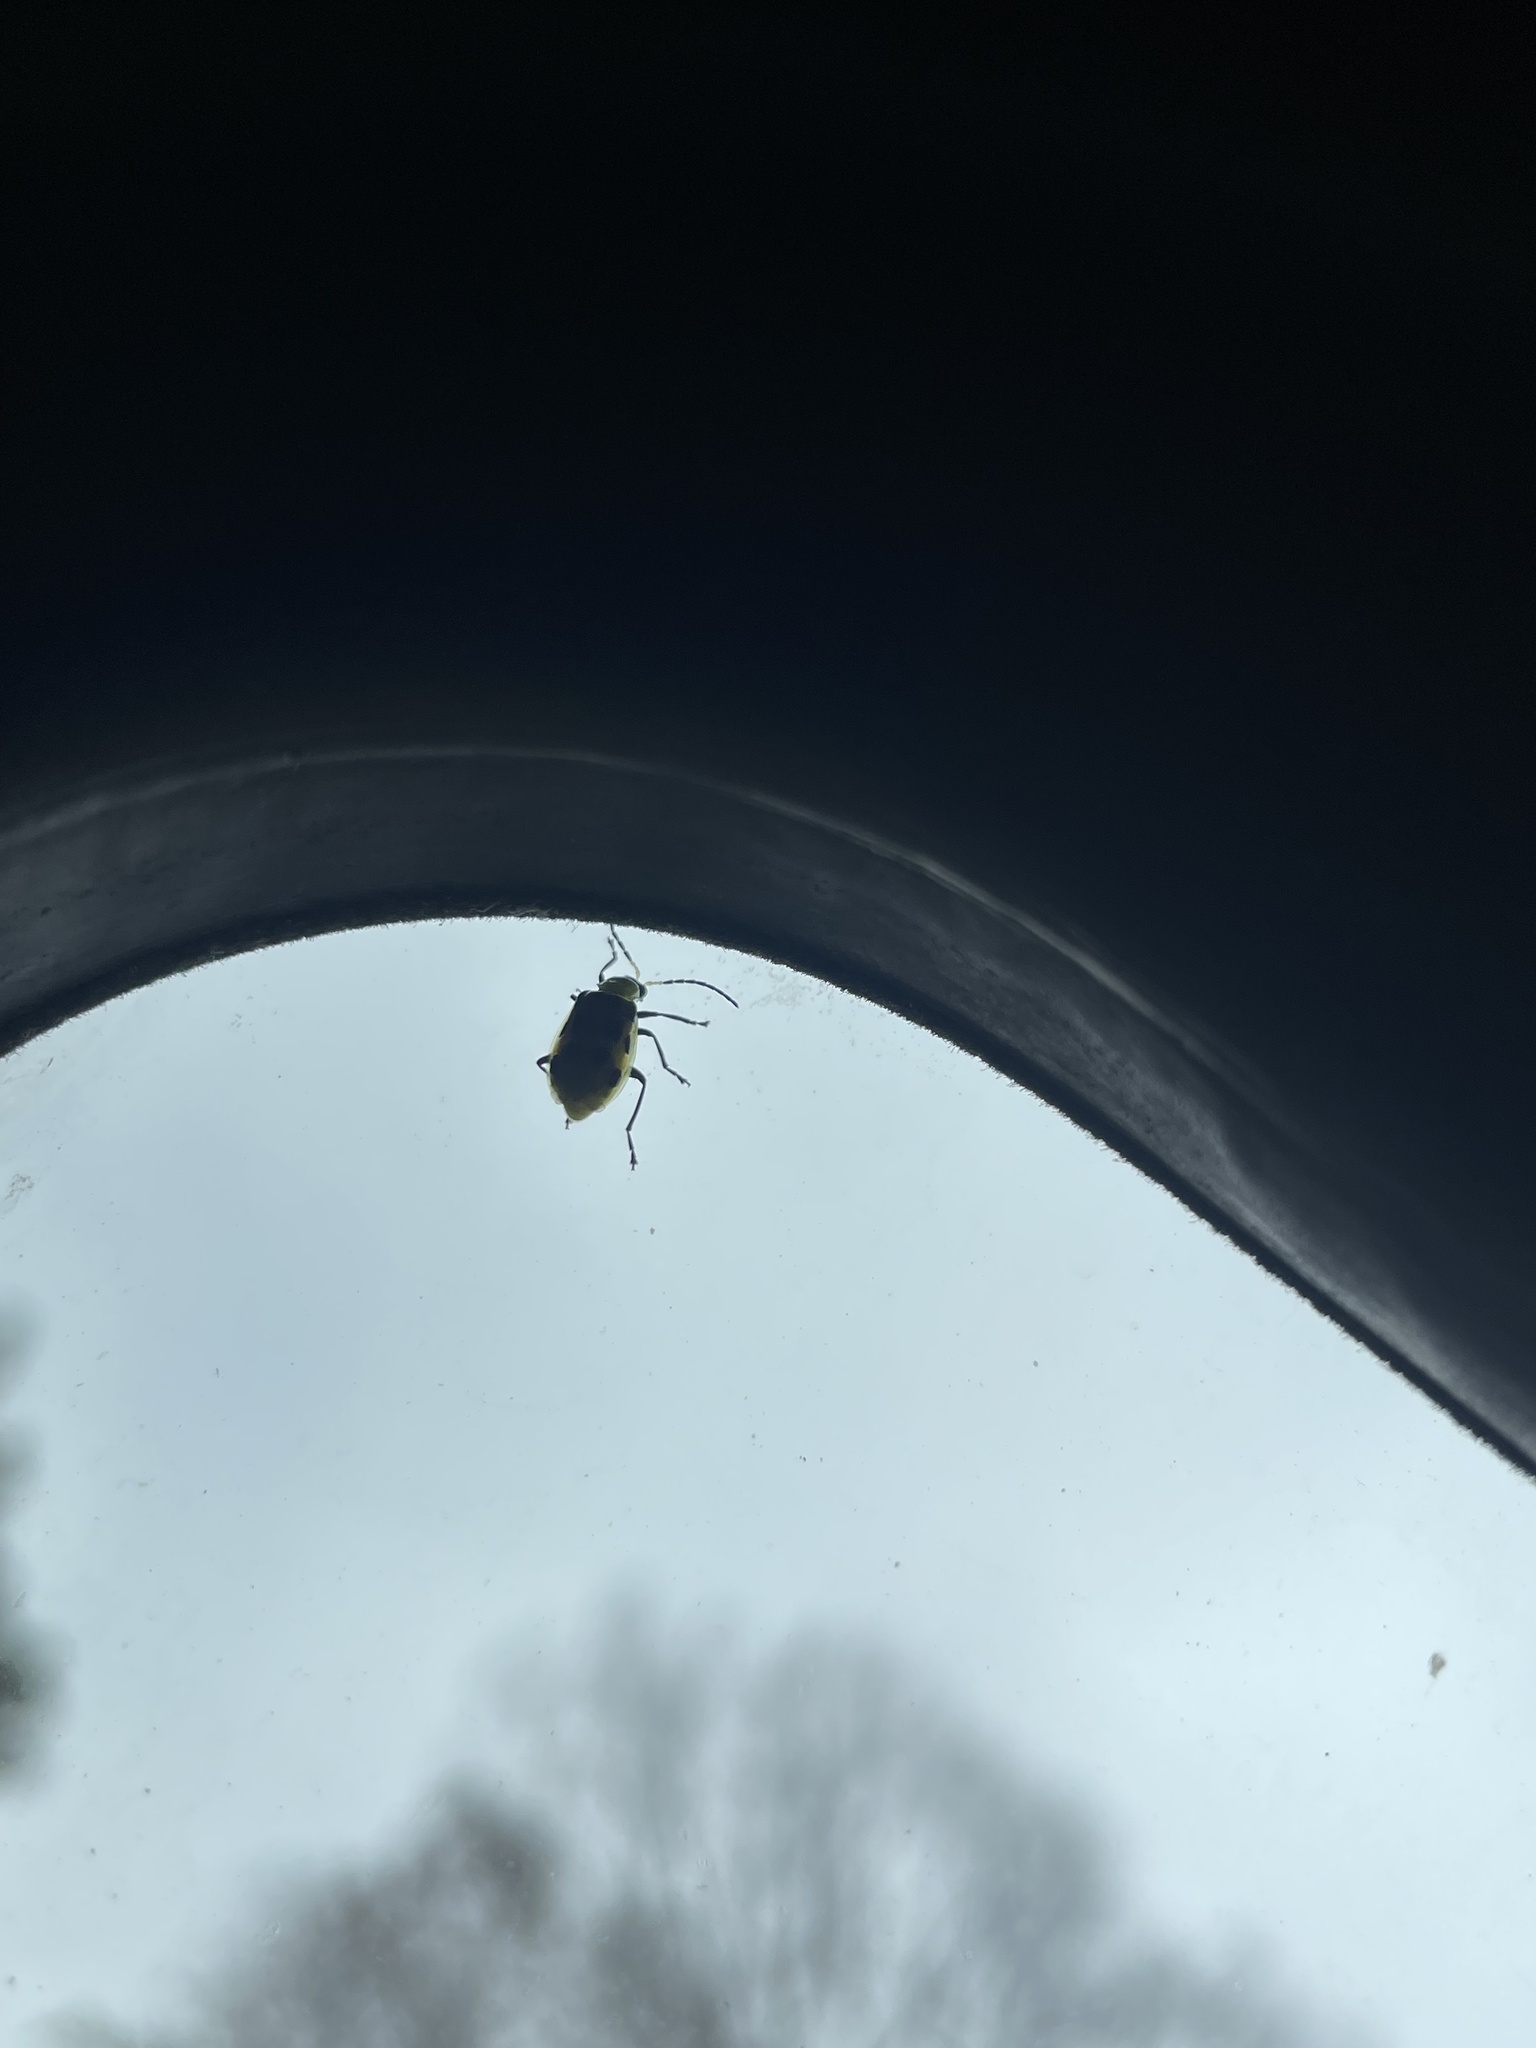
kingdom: Animalia
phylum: Arthropoda
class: Insecta
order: Coleoptera
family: Chrysomelidae
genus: Diabrotica
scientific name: Diabrotica undecimpunctata
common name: Spotted cucumber beetle
